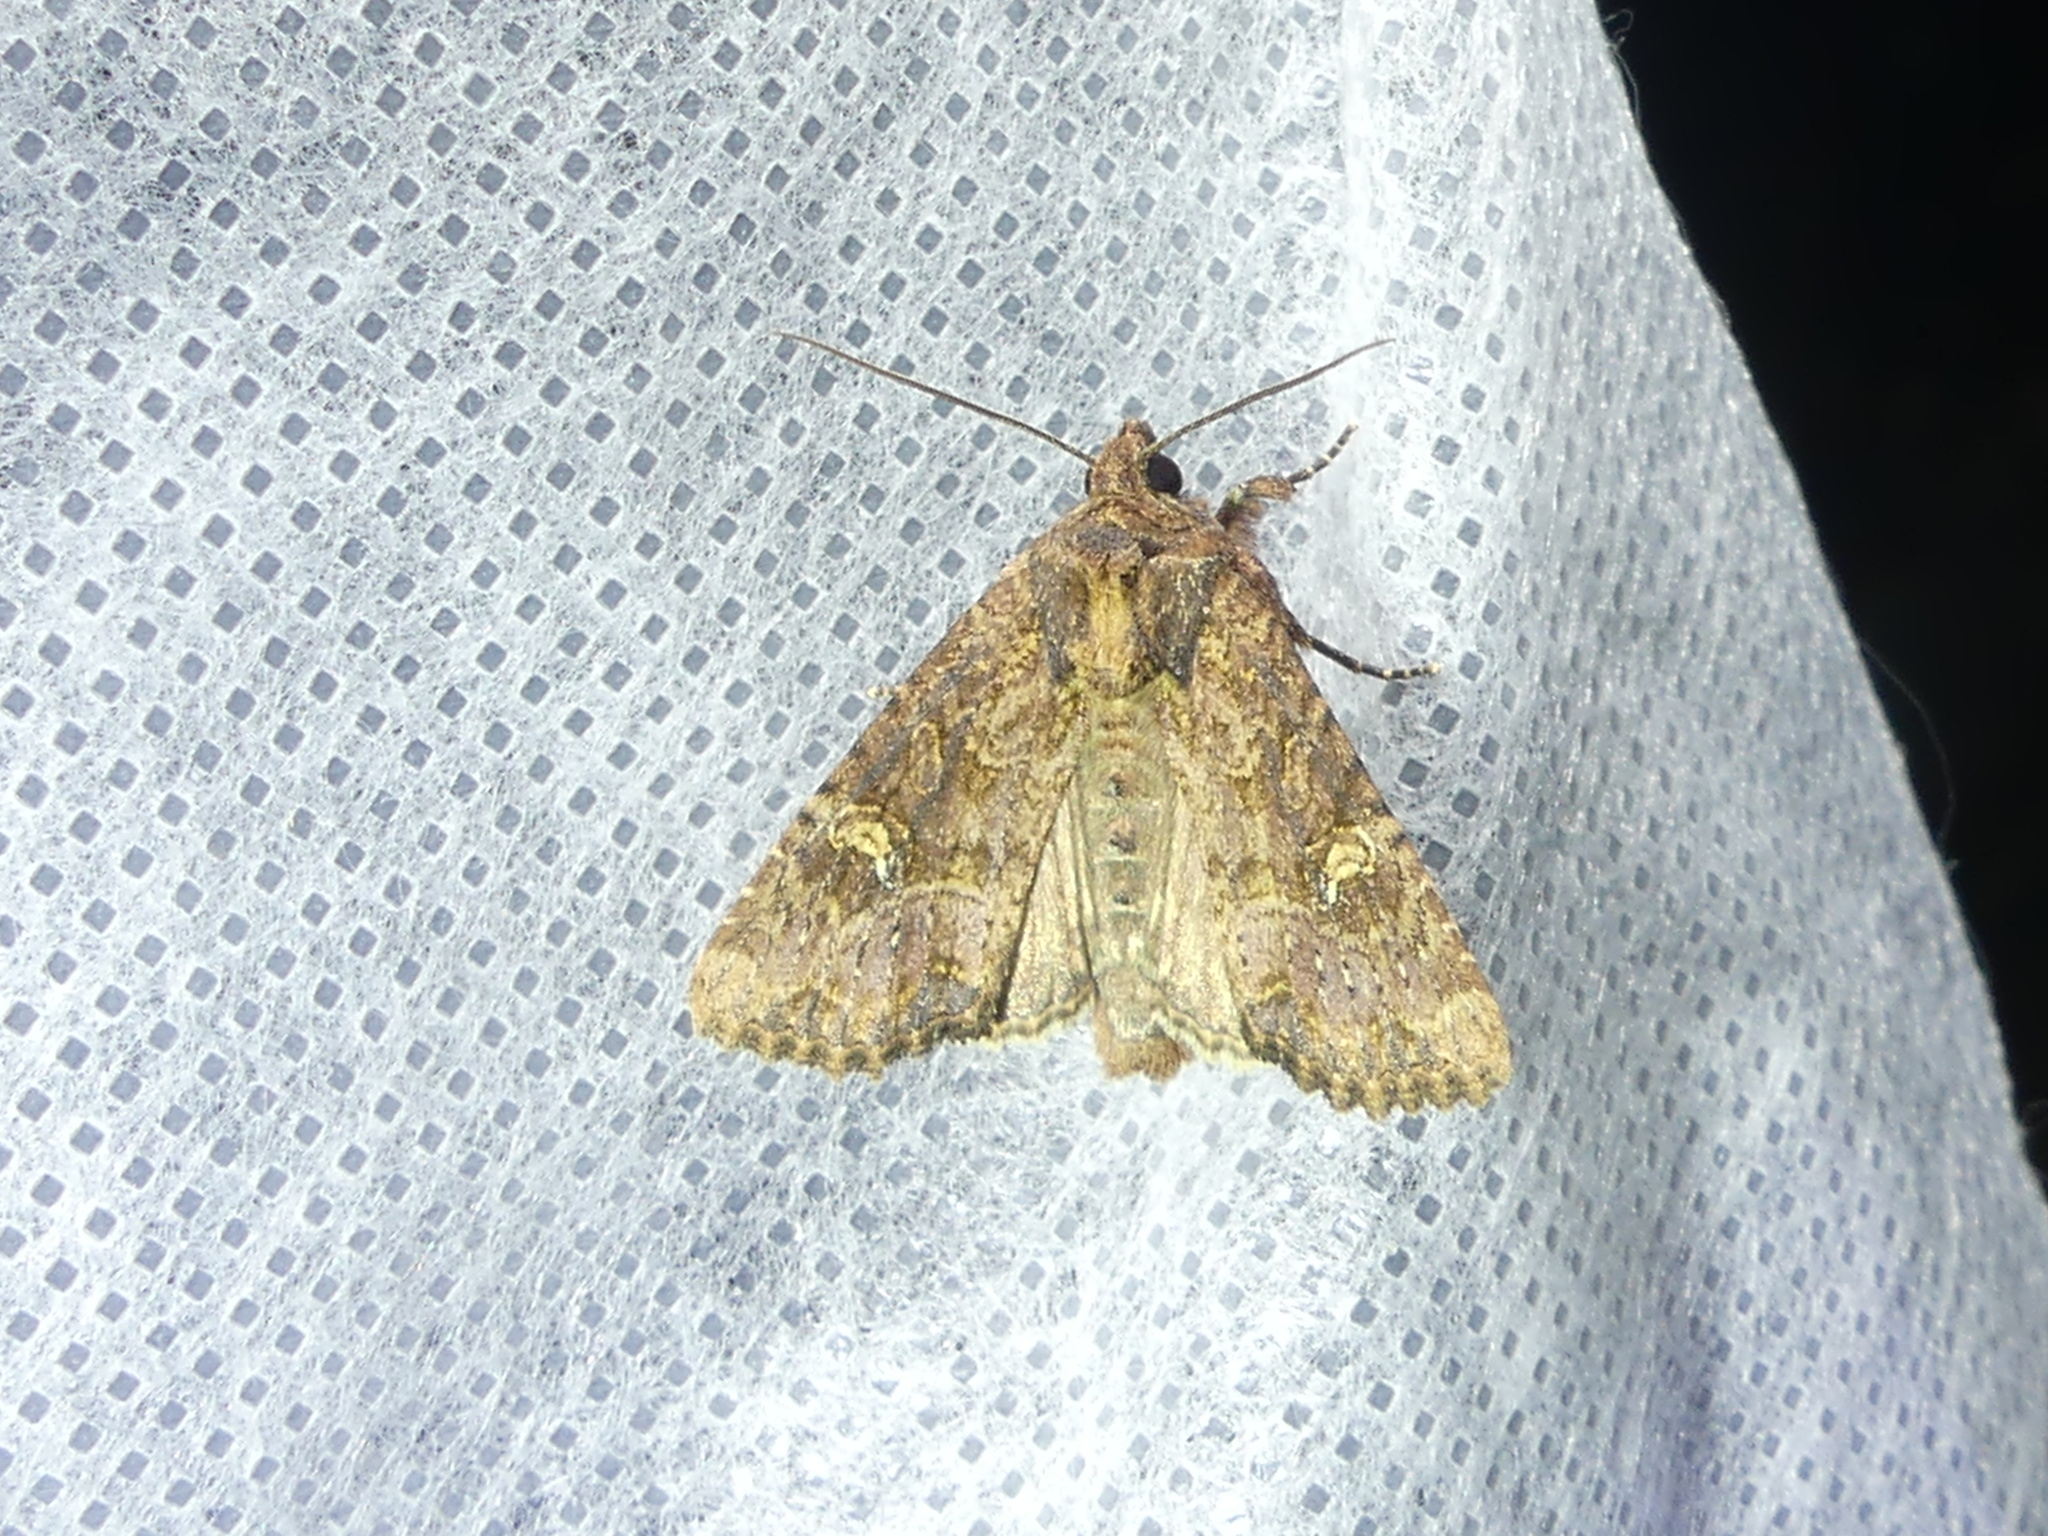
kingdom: Animalia
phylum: Arthropoda
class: Insecta
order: Lepidoptera
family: Noctuidae
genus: Mesapamea
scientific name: Mesapamea
